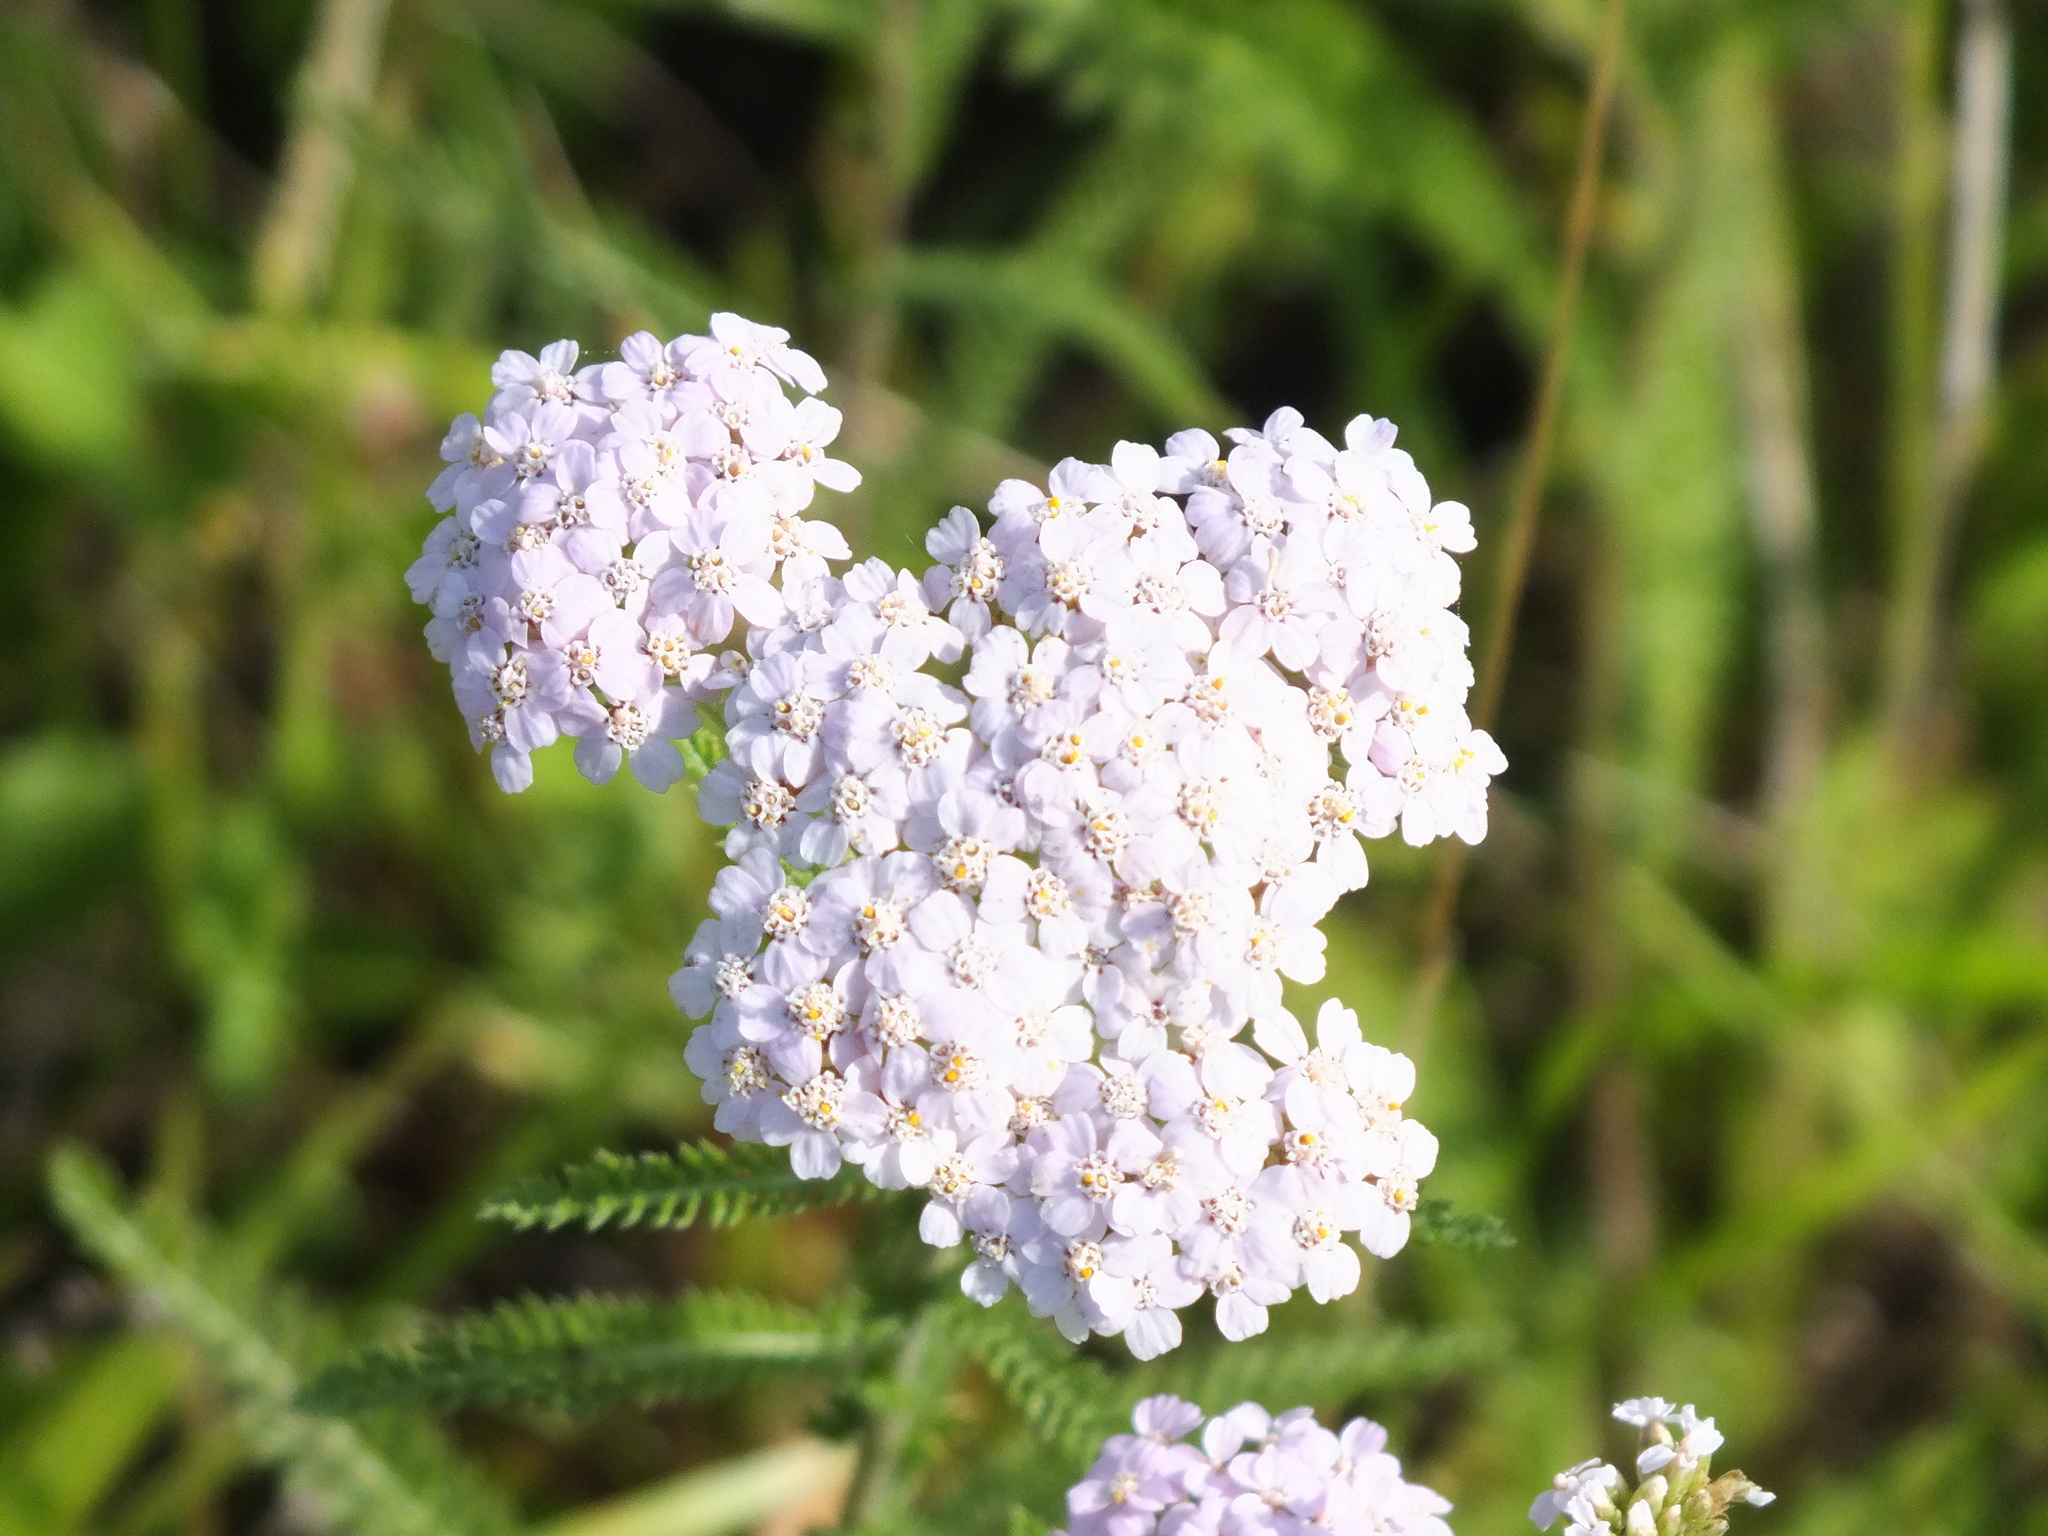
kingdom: Plantae
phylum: Tracheophyta
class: Magnoliopsida
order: Asterales
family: Asteraceae
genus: Achillea
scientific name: Achillea millefolium
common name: Yarrow
